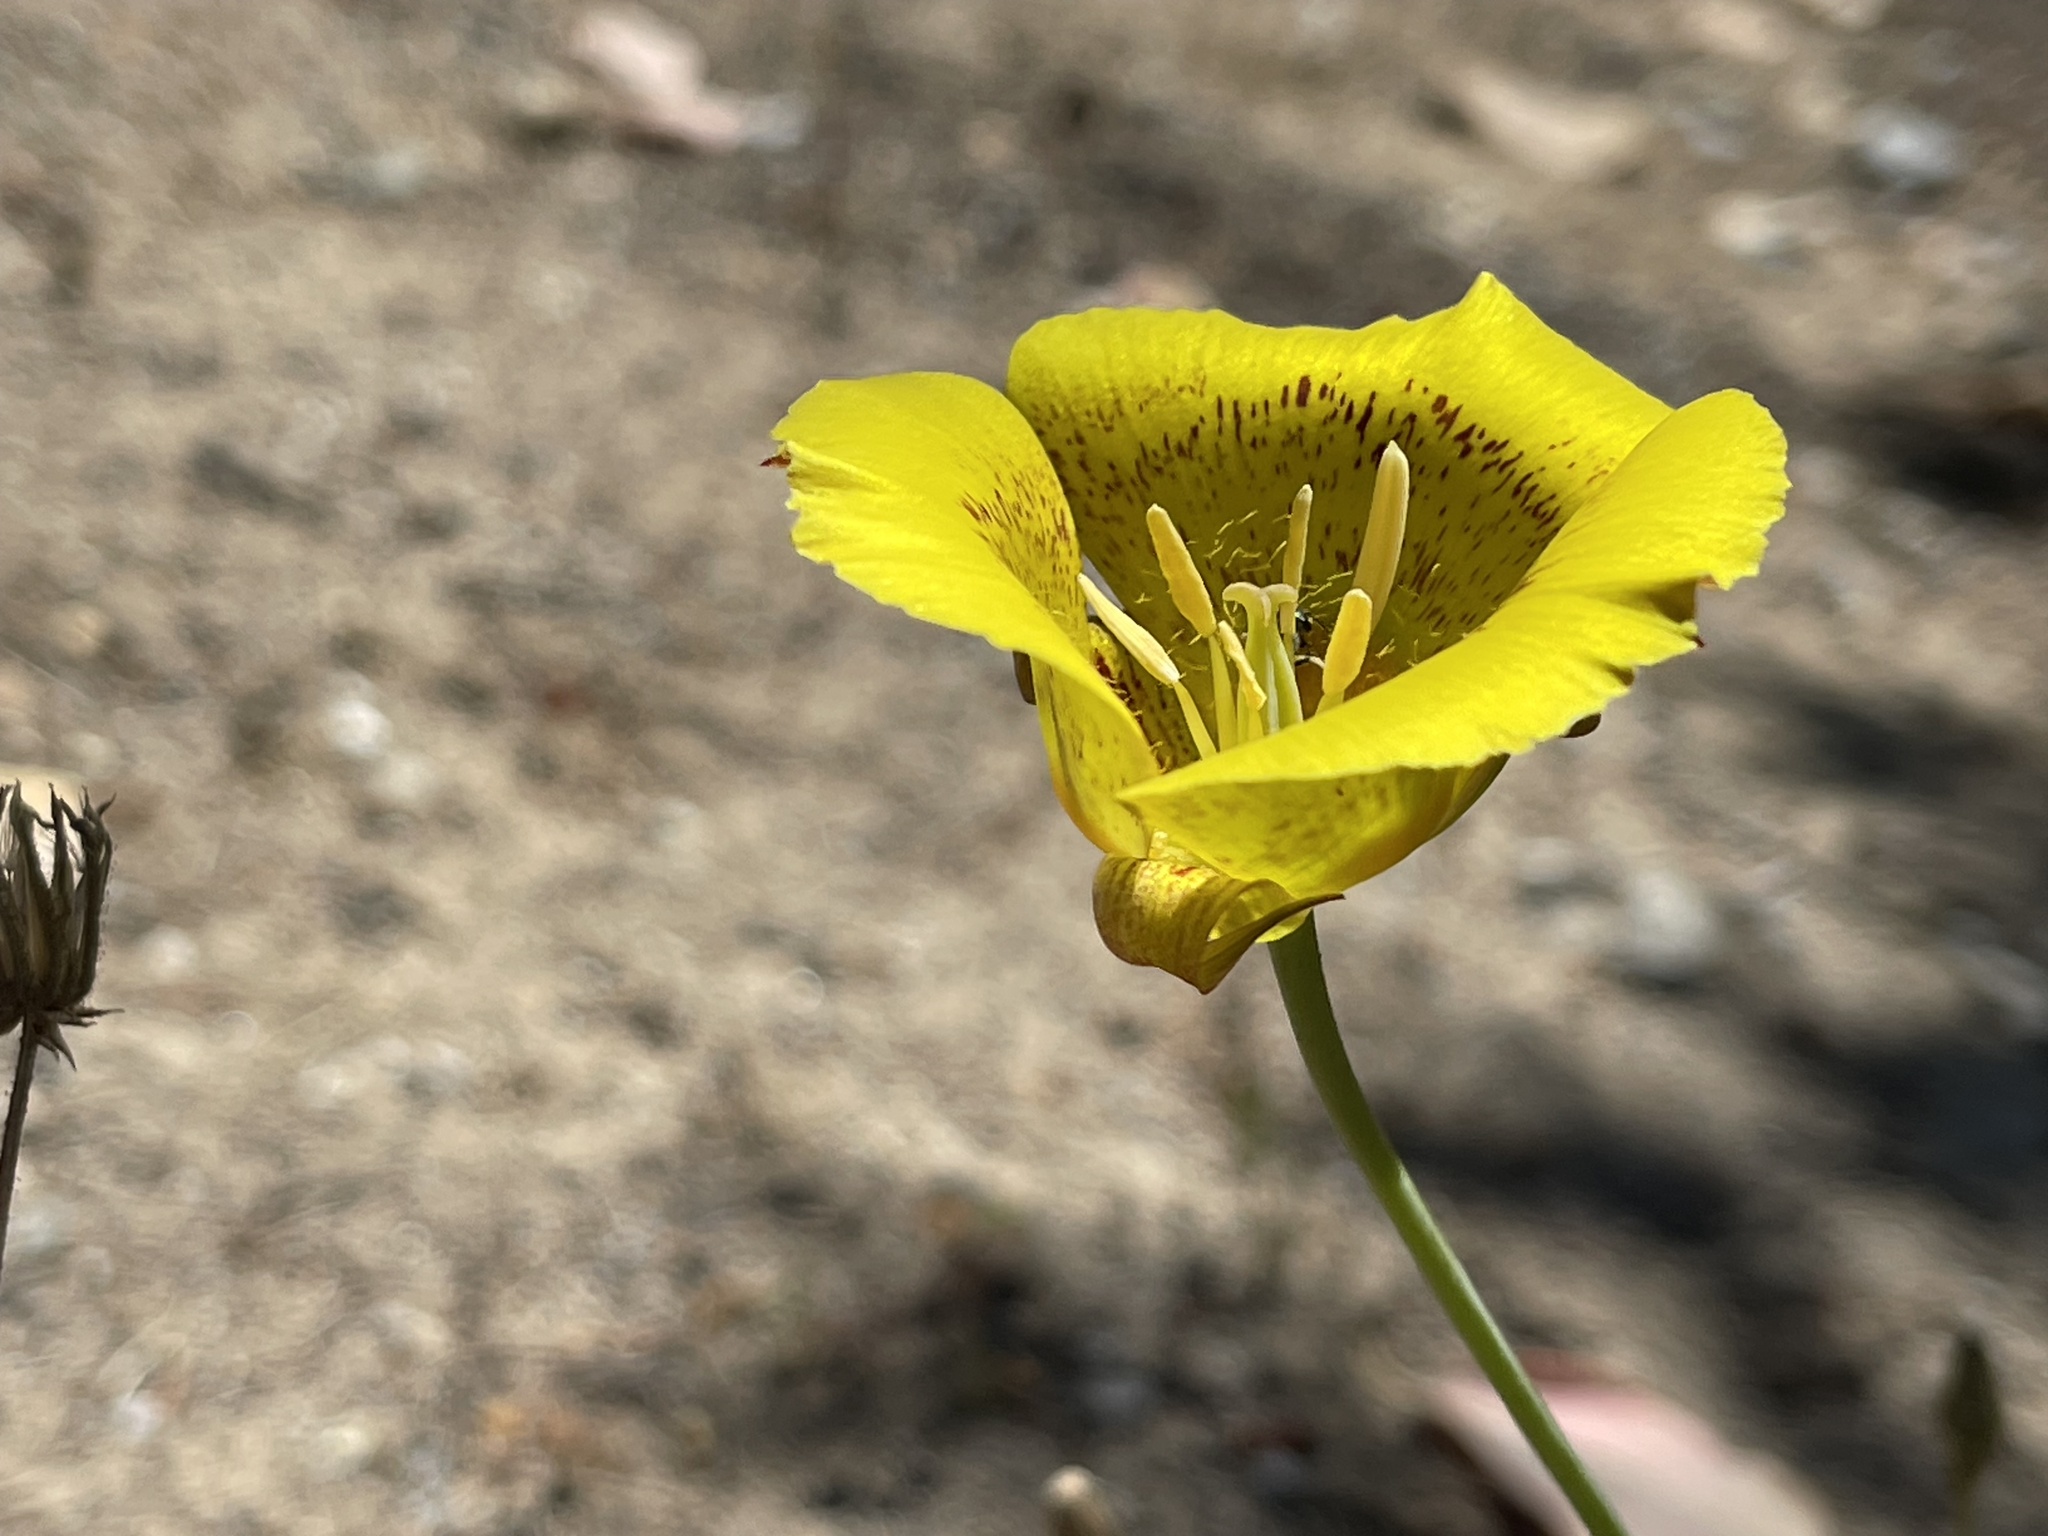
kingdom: Plantae
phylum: Tracheophyta
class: Liliopsida
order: Liliales
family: Liliaceae
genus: Calochortus
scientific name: Calochortus luteus
